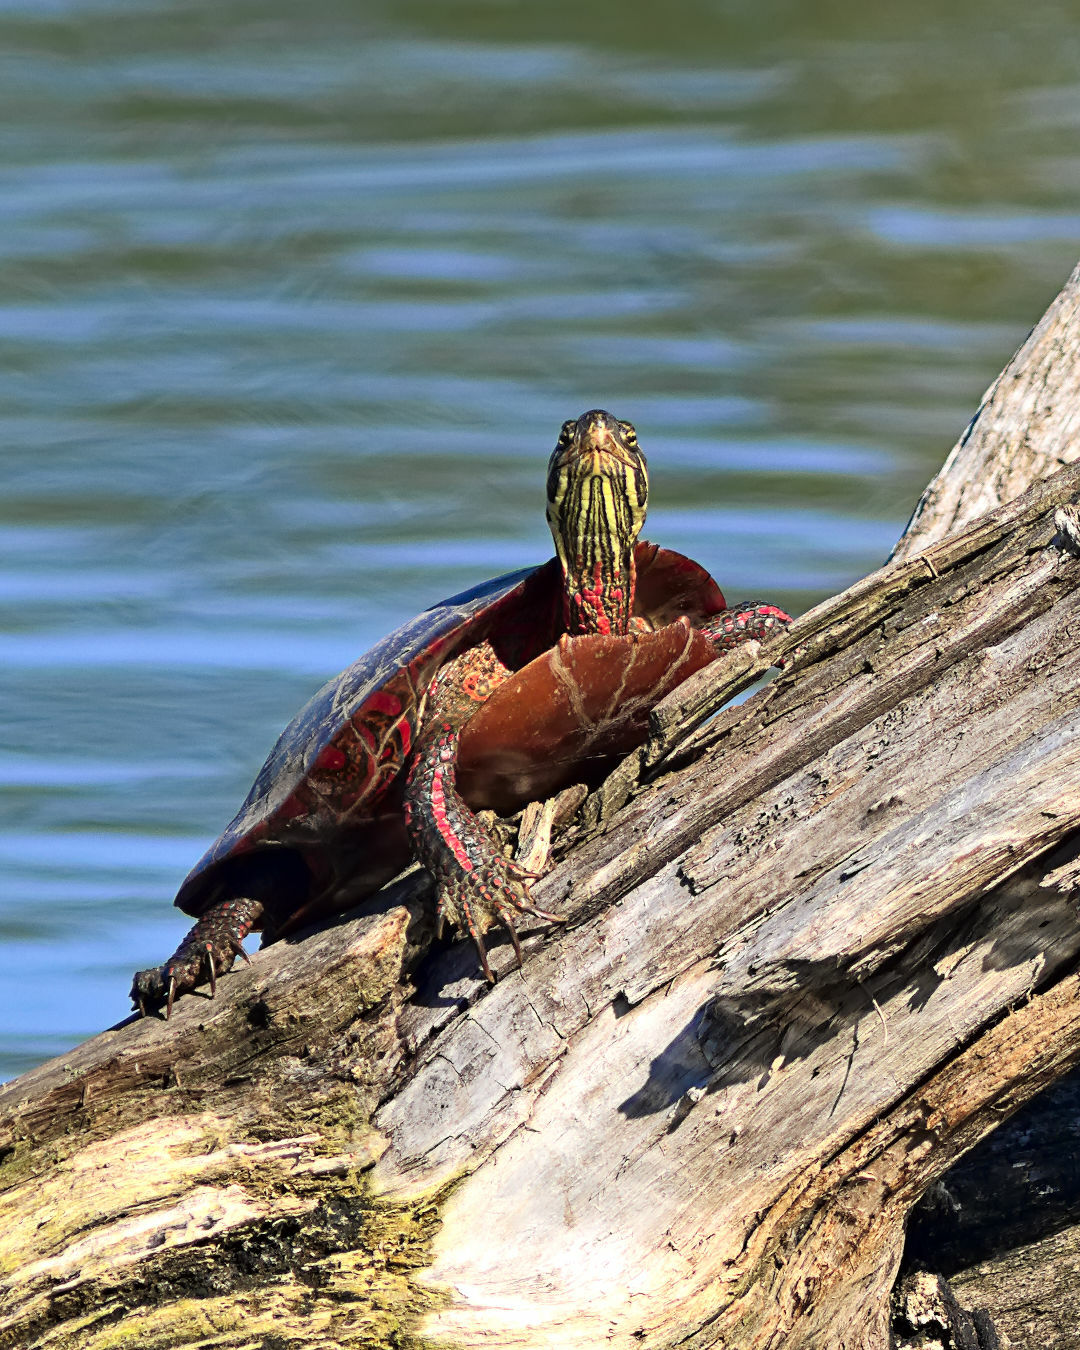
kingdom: Animalia
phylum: Chordata
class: Testudines
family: Emydidae
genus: Chrysemys
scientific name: Chrysemys picta
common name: Painted turtle
